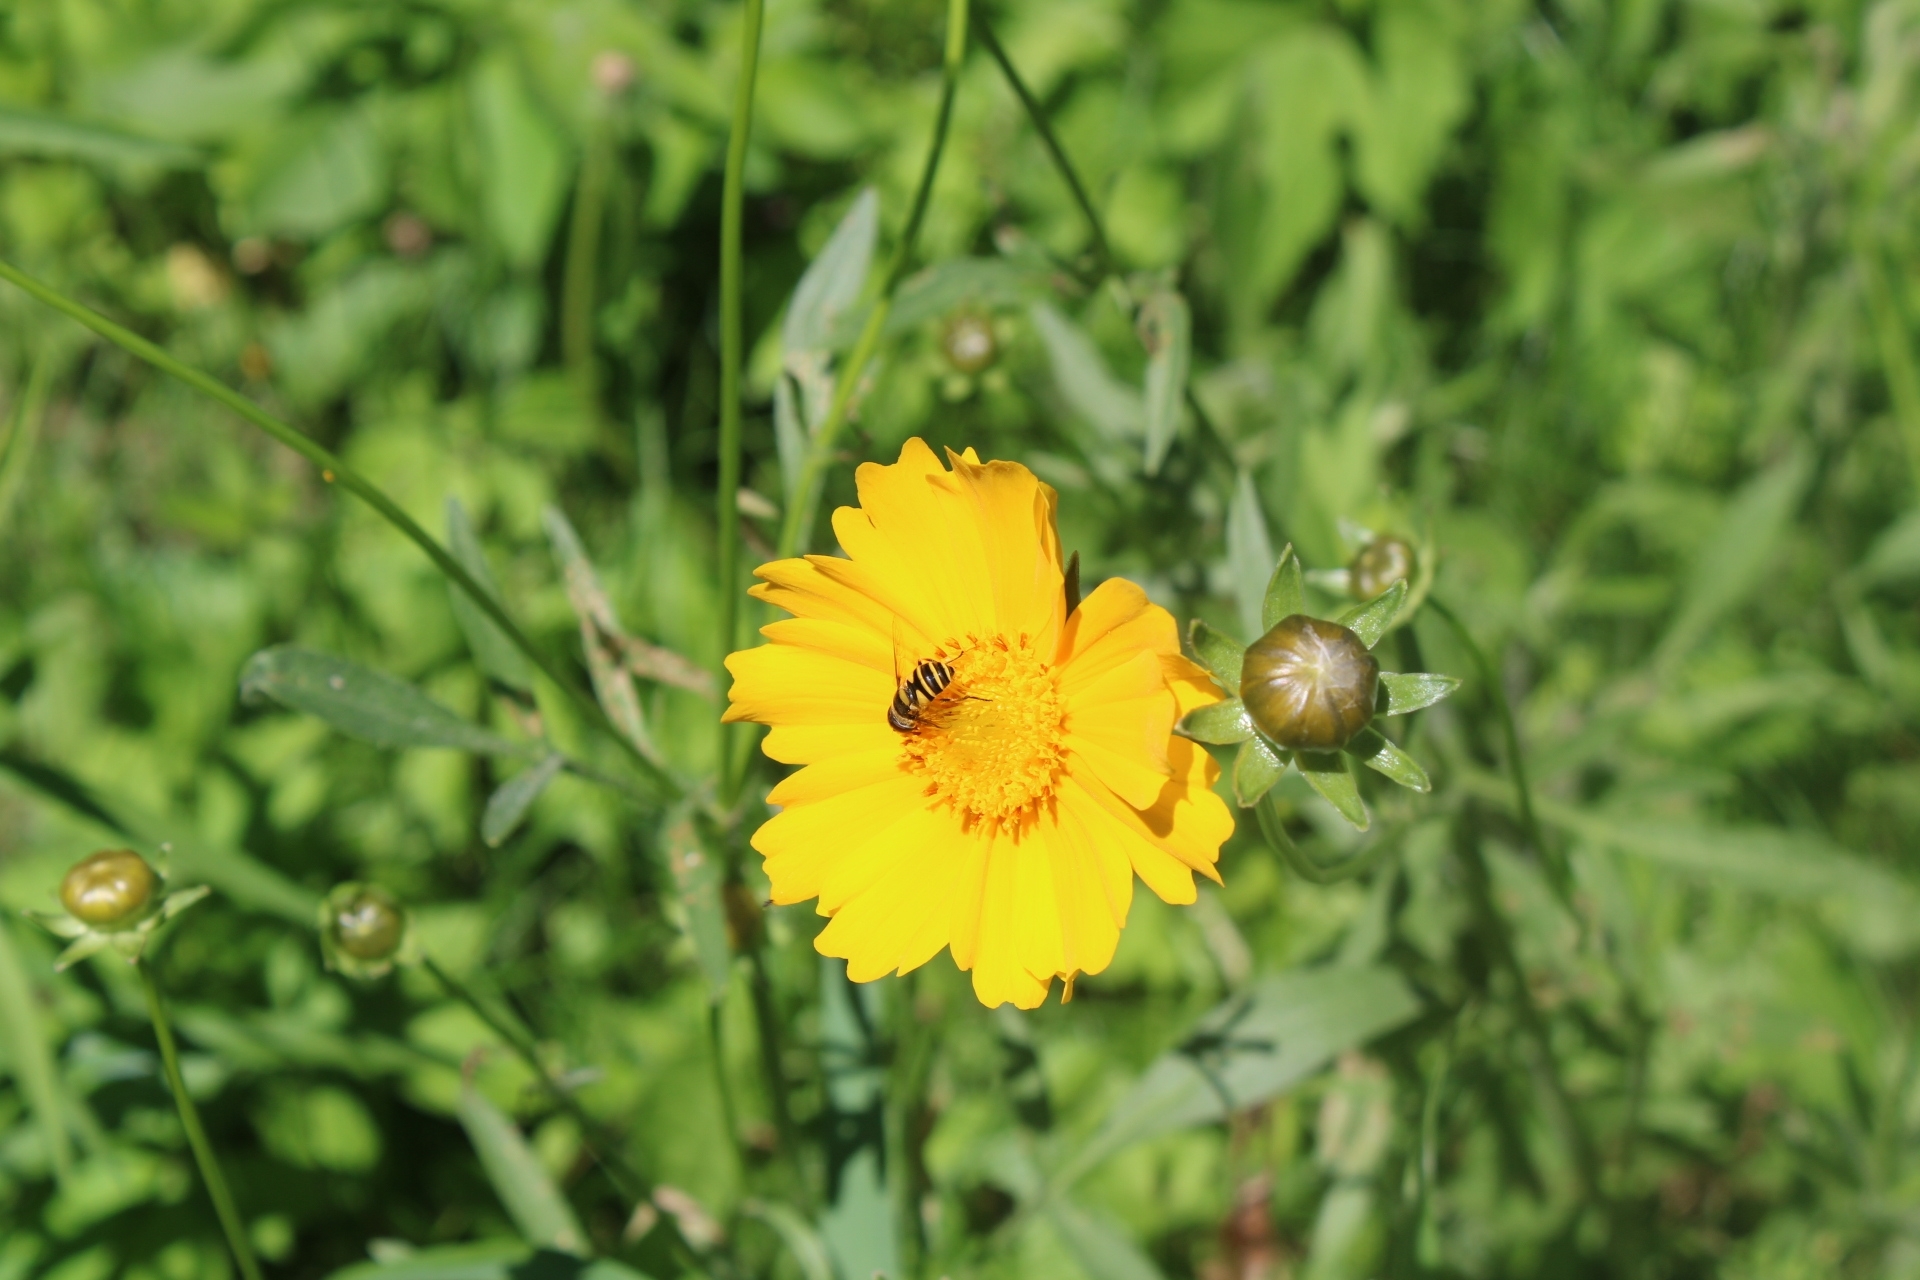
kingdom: Animalia
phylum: Arthropoda
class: Insecta
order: Diptera
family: Syrphidae
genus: Eristalis
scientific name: Eristalis transversa
